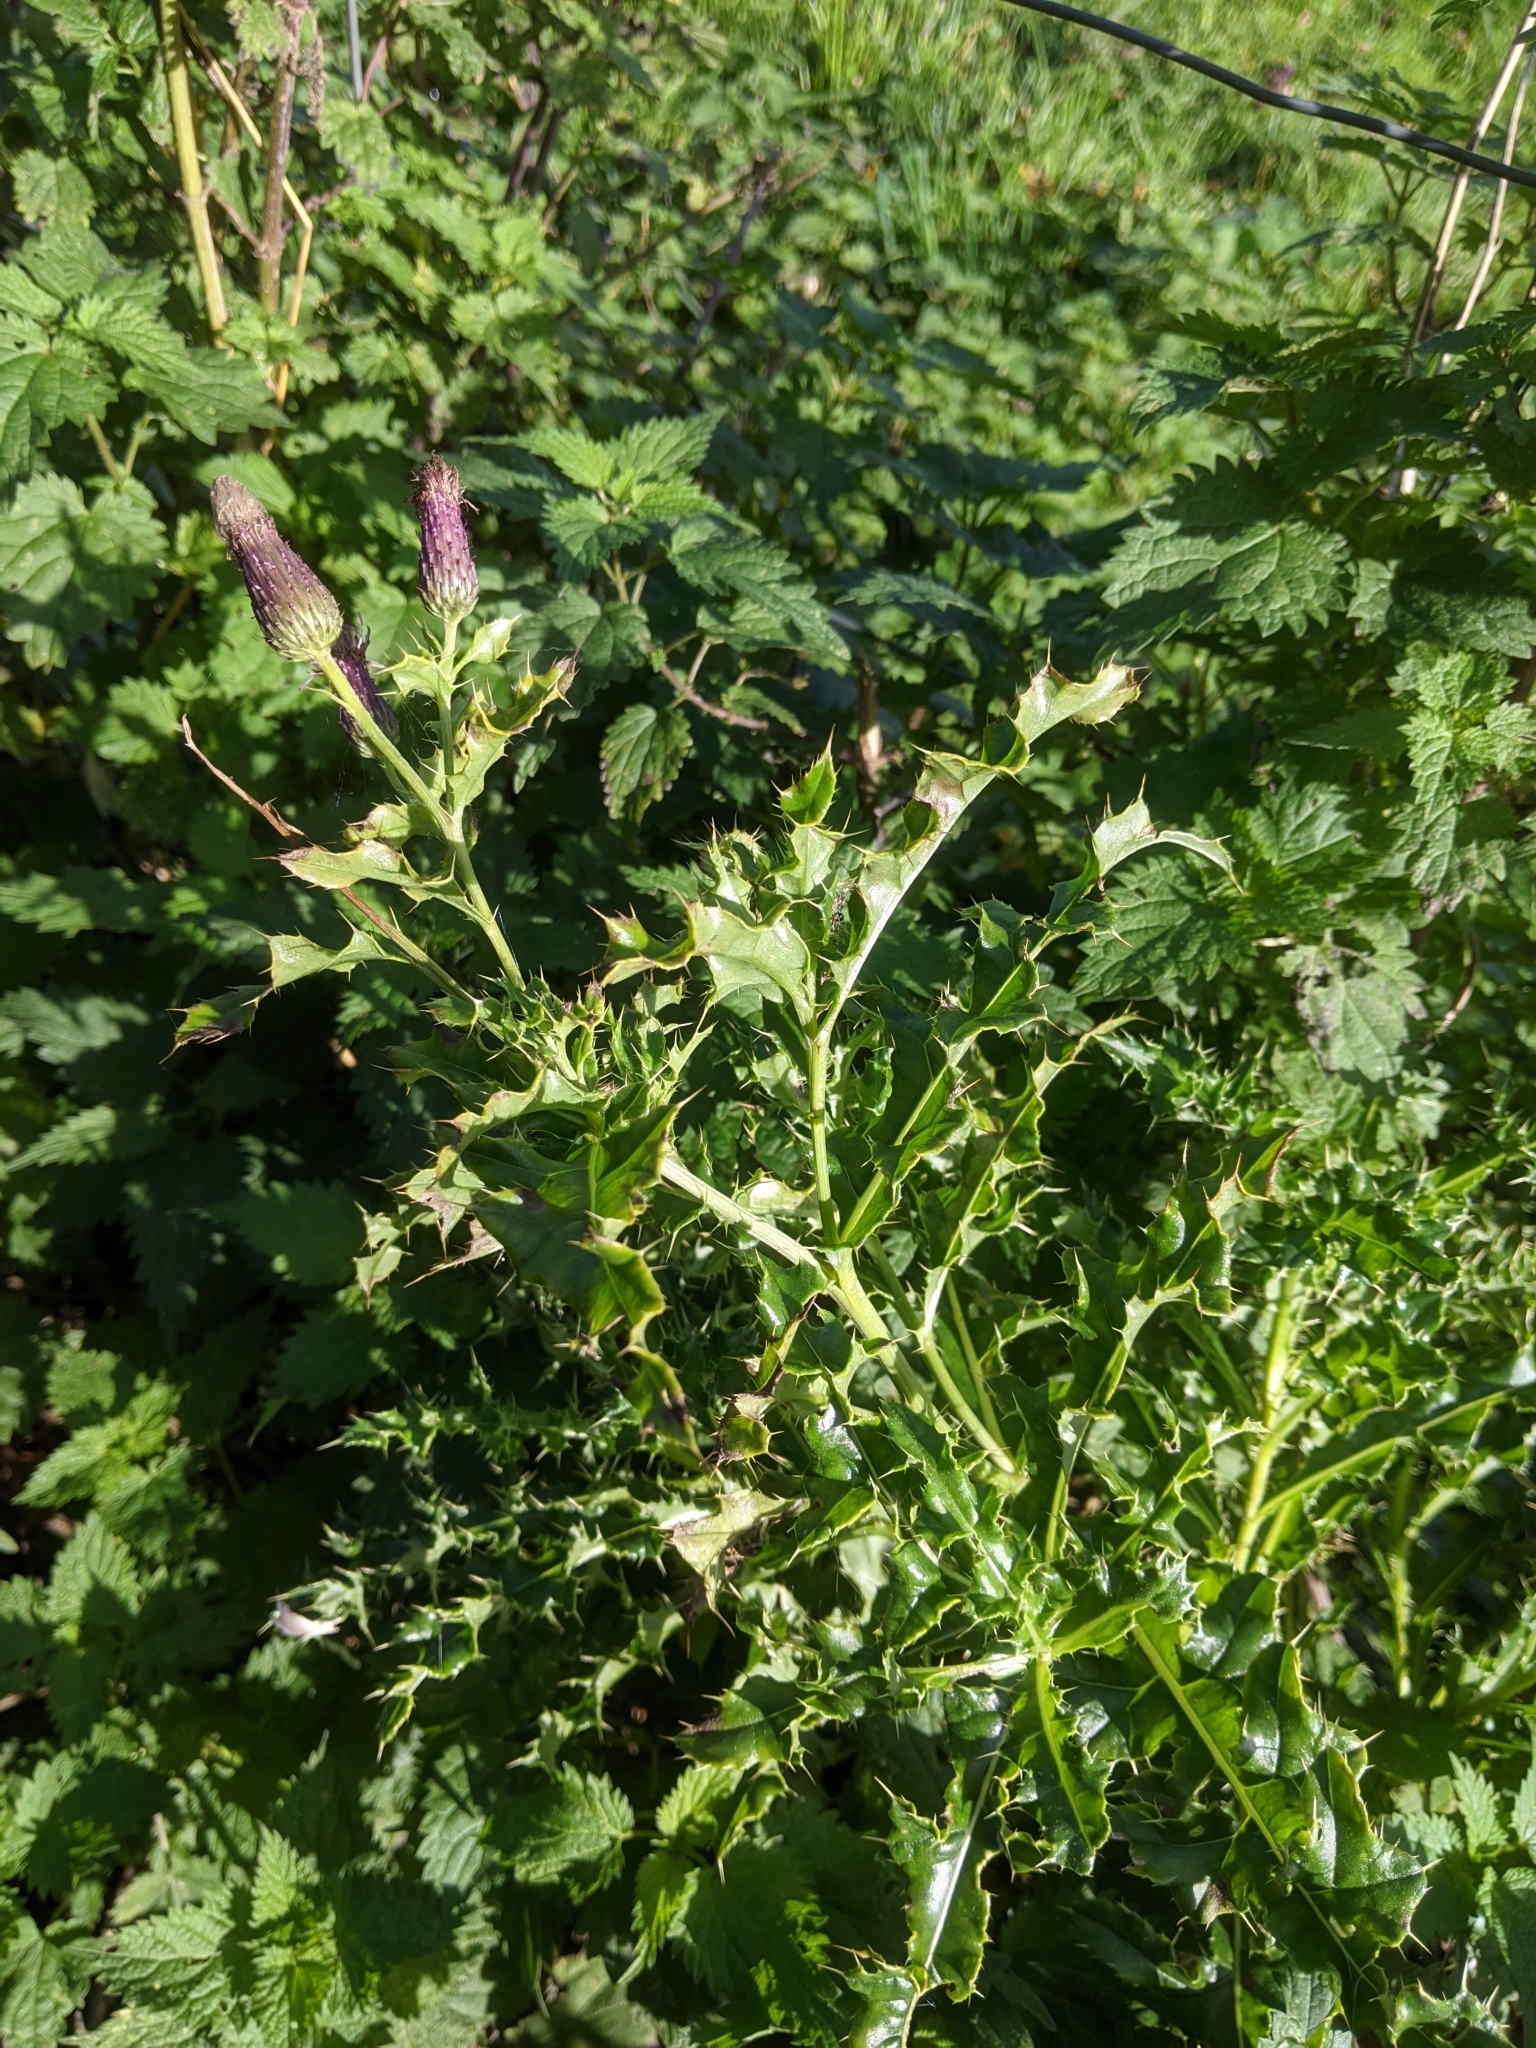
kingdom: Plantae
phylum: Tracheophyta
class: Magnoliopsida
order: Asterales
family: Asteraceae
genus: Cirsium
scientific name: Cirsium arvense
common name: Creeping thistle
